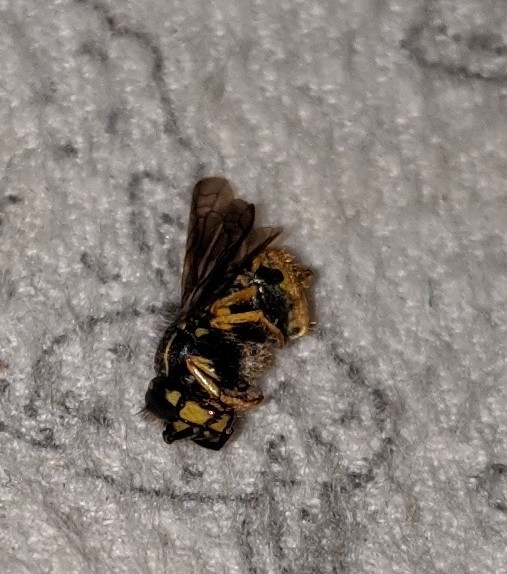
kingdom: Animalia
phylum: Arthropoda
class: Insecta
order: Hymenoptera
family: Vespidae
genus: Vespula
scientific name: Vespula
